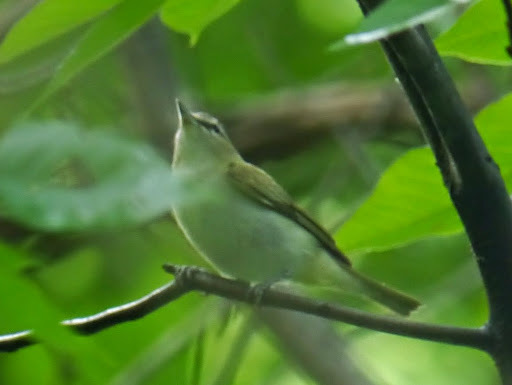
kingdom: Animalia
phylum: Chordata
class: Aves
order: Passeriformes
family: Vireonidae
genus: Vireo
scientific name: Vireo olivaceus
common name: Red-eyed vireo
